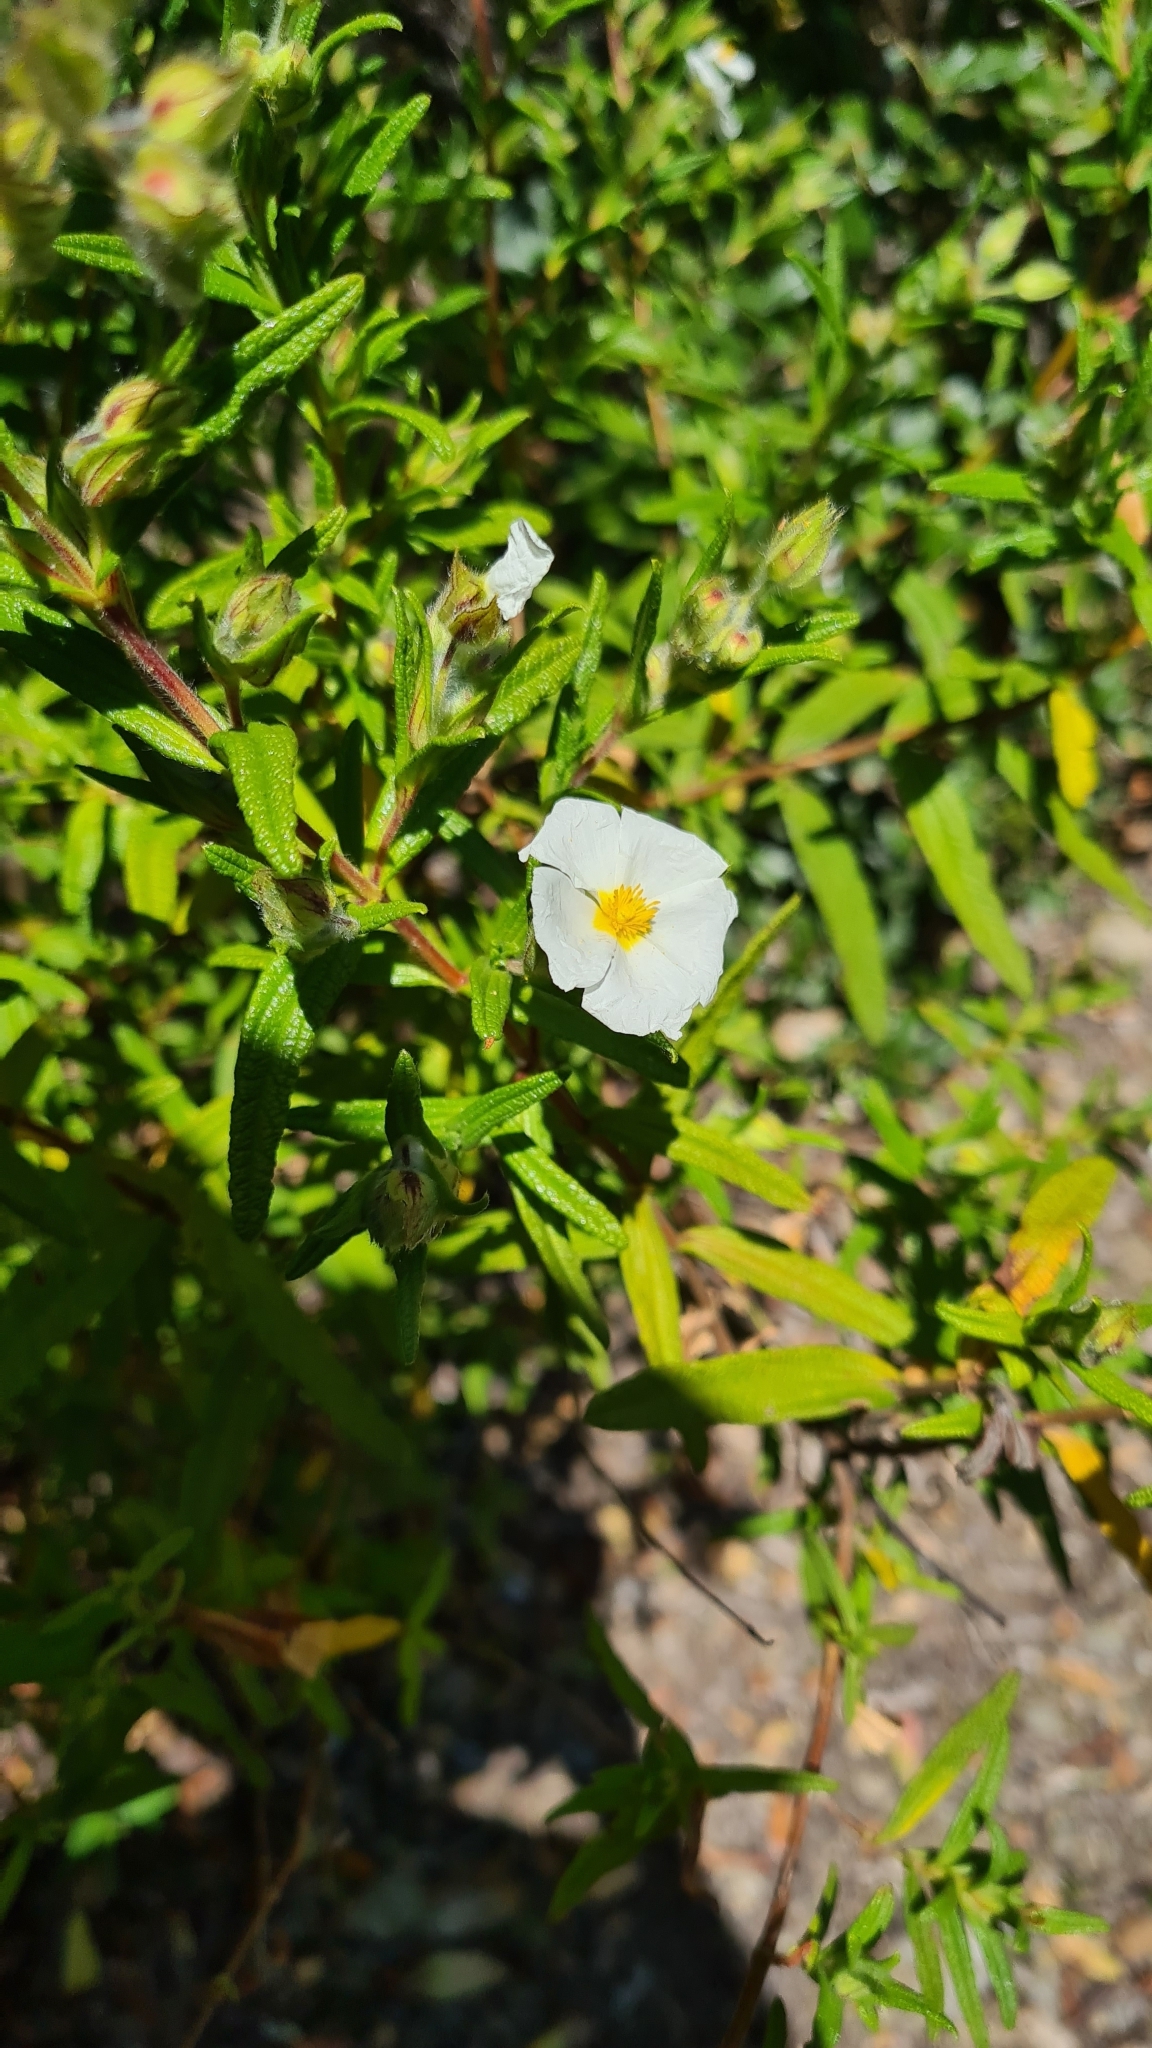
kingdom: Plantae
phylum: Tracheophyta
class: Magnoliopsida
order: Malvales
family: Cistaceae
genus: Cistus
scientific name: Cistus monspeliensis
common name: Montpelier cistus
